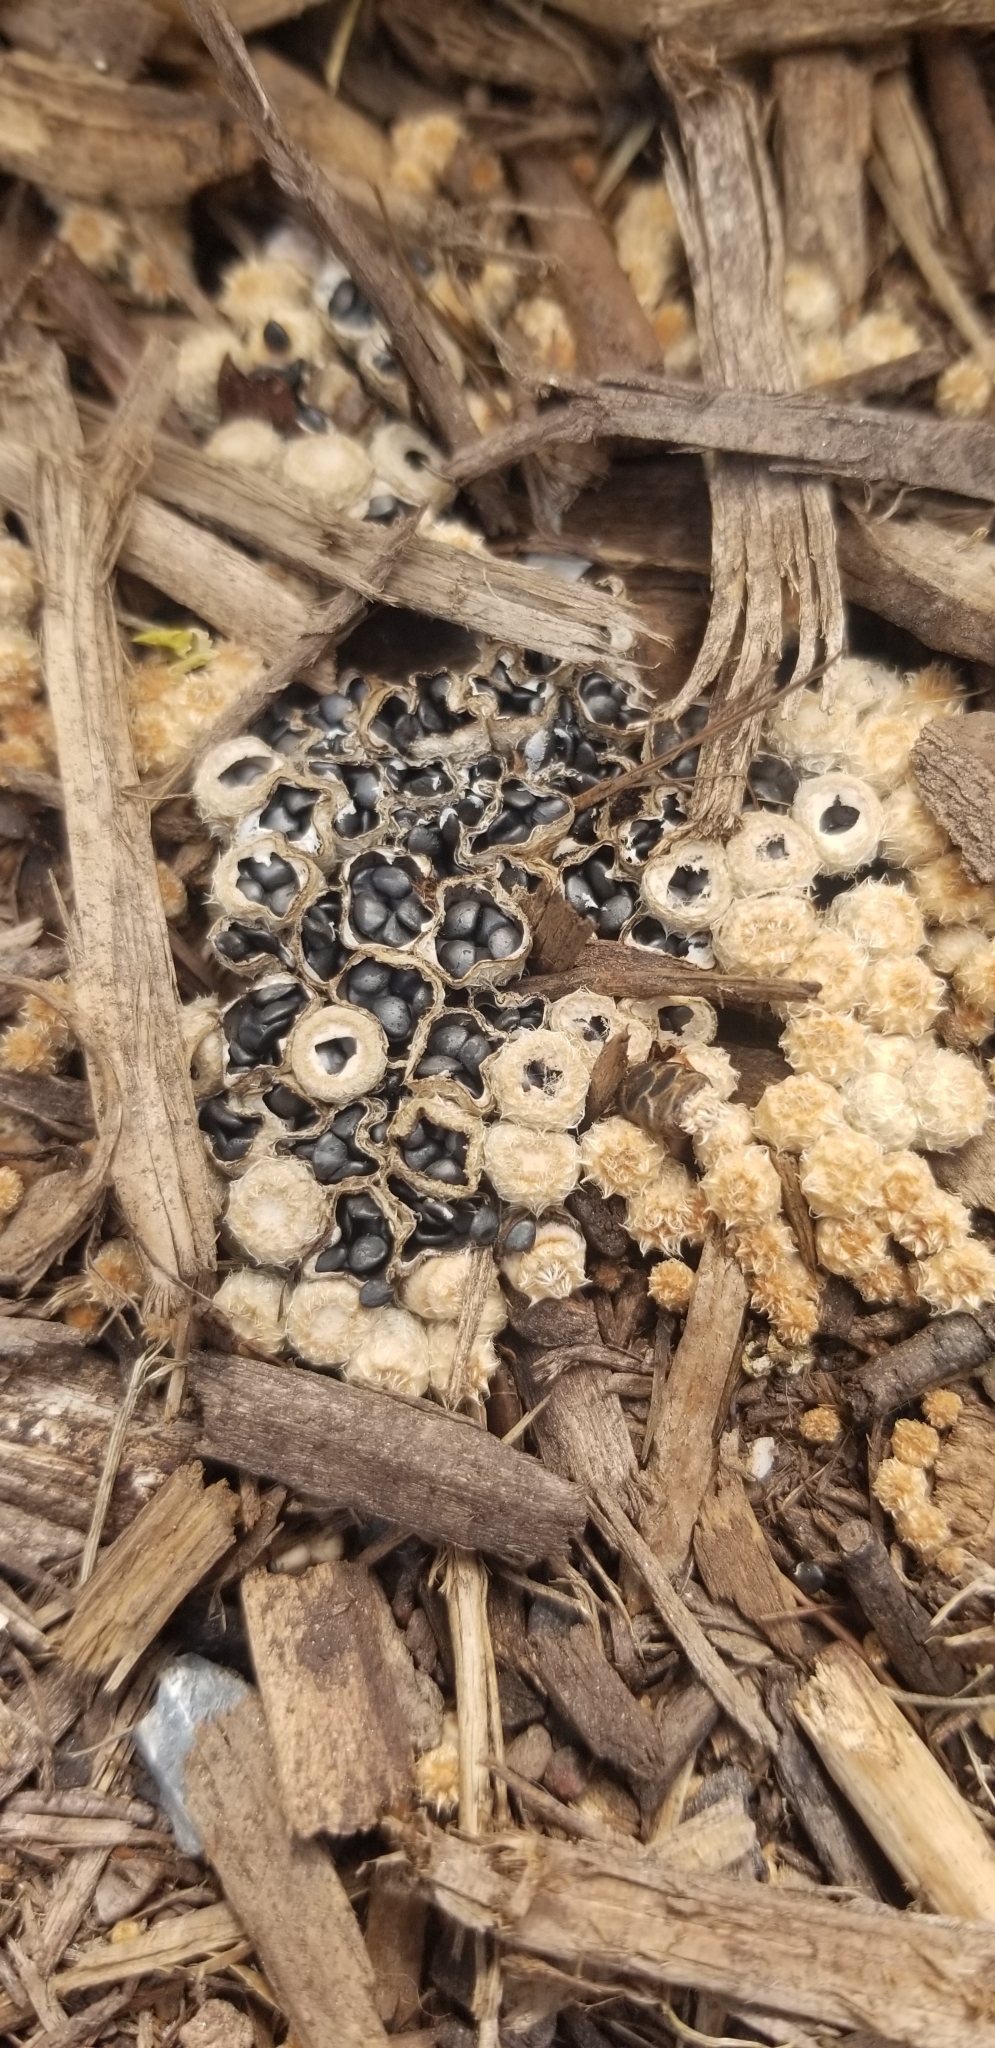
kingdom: Fungi
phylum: Basidiomycota
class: Agaricomycetes
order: Agaricales
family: Agaricaceae
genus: Cyathus
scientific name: Cyathus stercoreus
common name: Dung bird's nest
